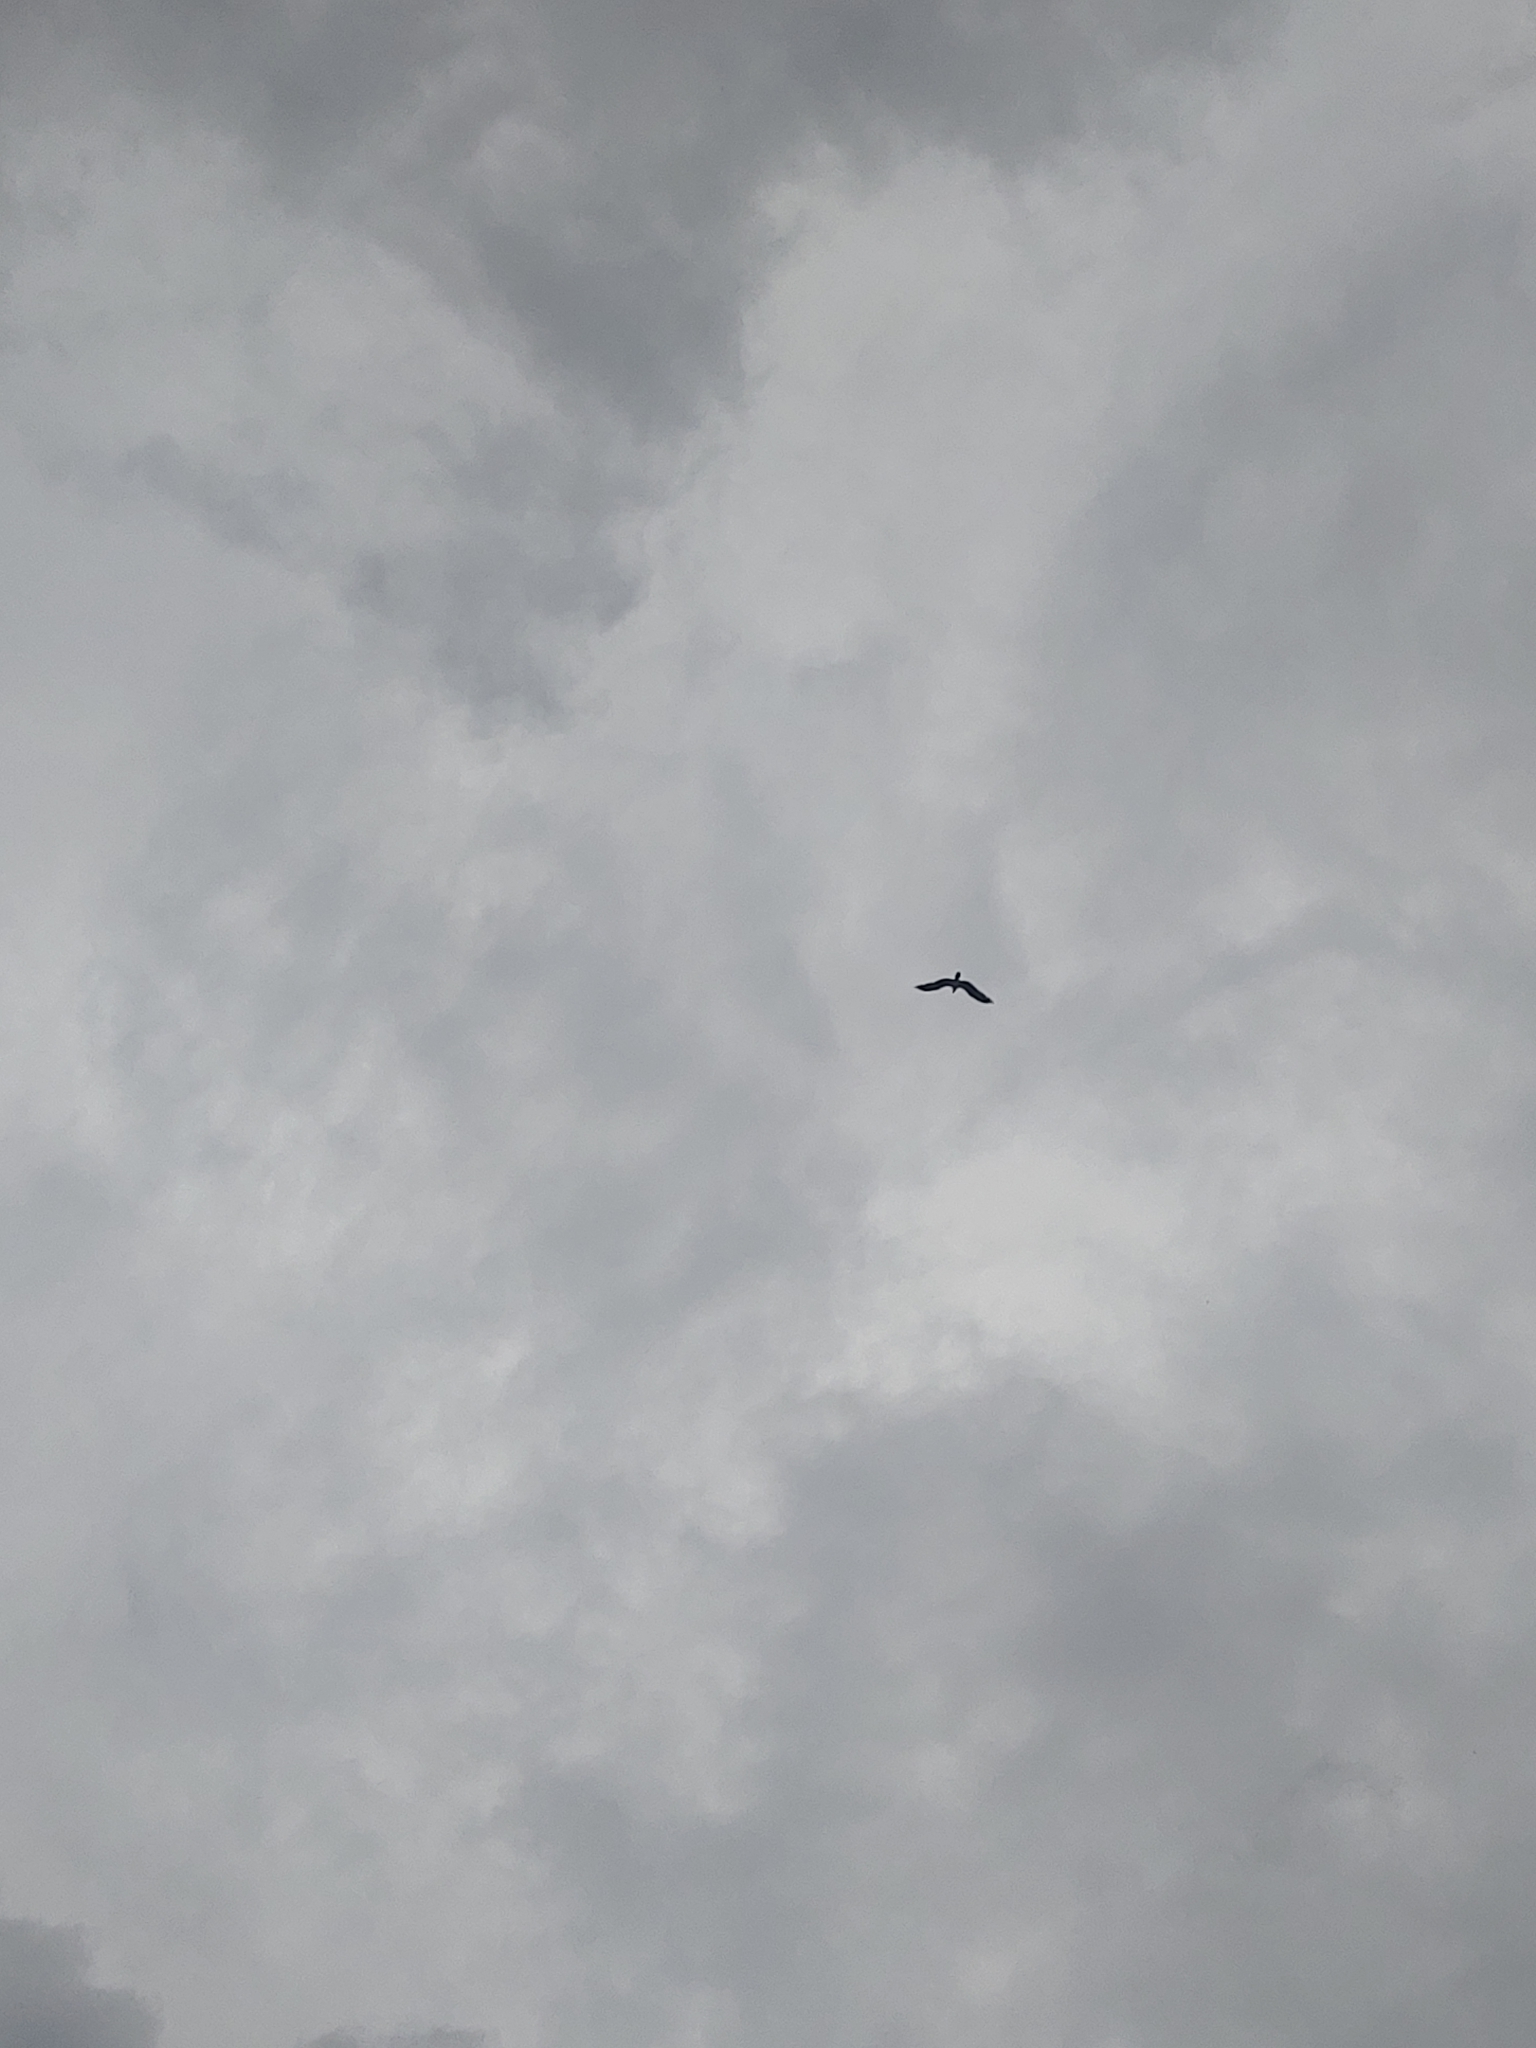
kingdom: Animalia
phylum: Chordata
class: Aves
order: Accipitriformes
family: Pandionidae
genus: Pandion
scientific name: Pandion haliaetus
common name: Osprey
